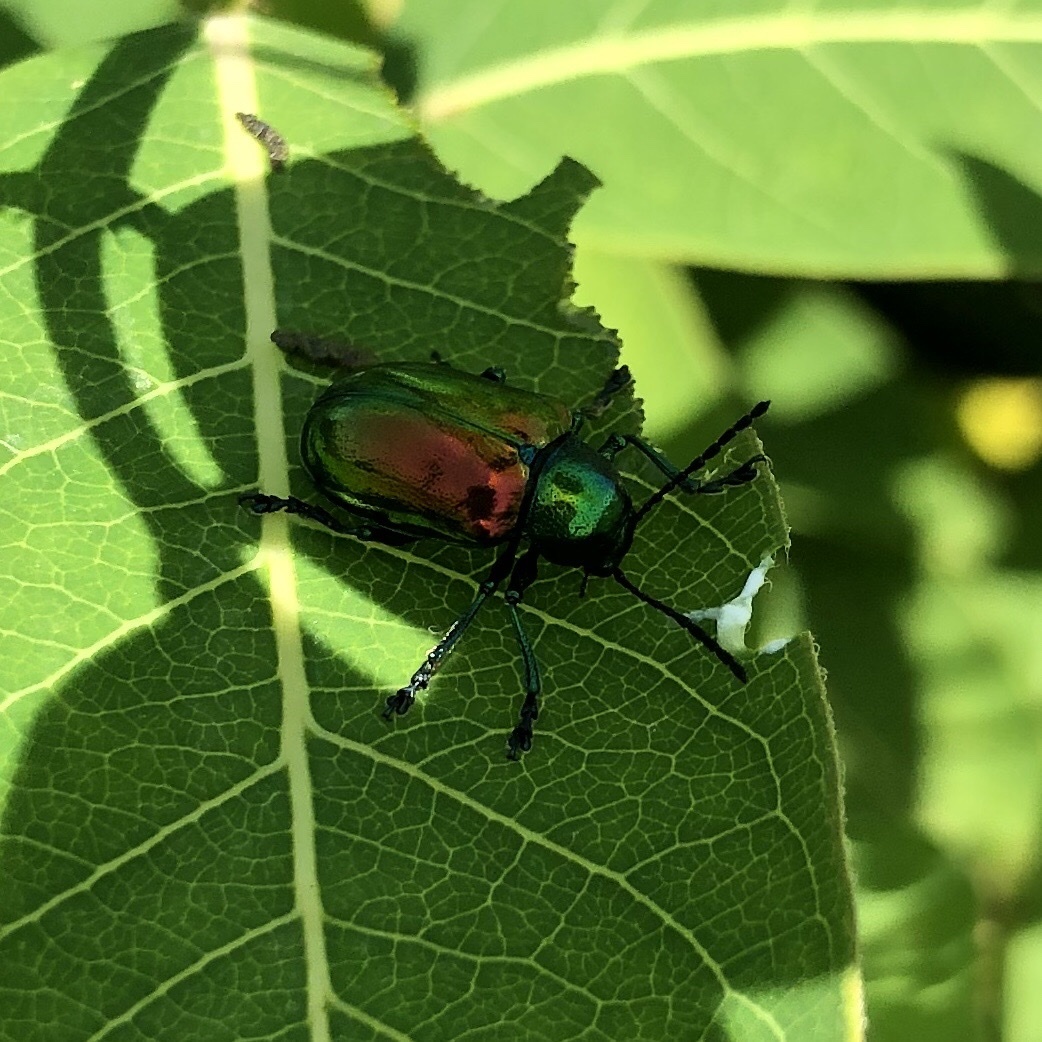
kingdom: Animalia
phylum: Arthropoda
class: Insecta
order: Coleoptera
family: Chrysomelidae
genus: Chrysochus
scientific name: Chrysochus auratus
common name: Dogbane leaf beetle
